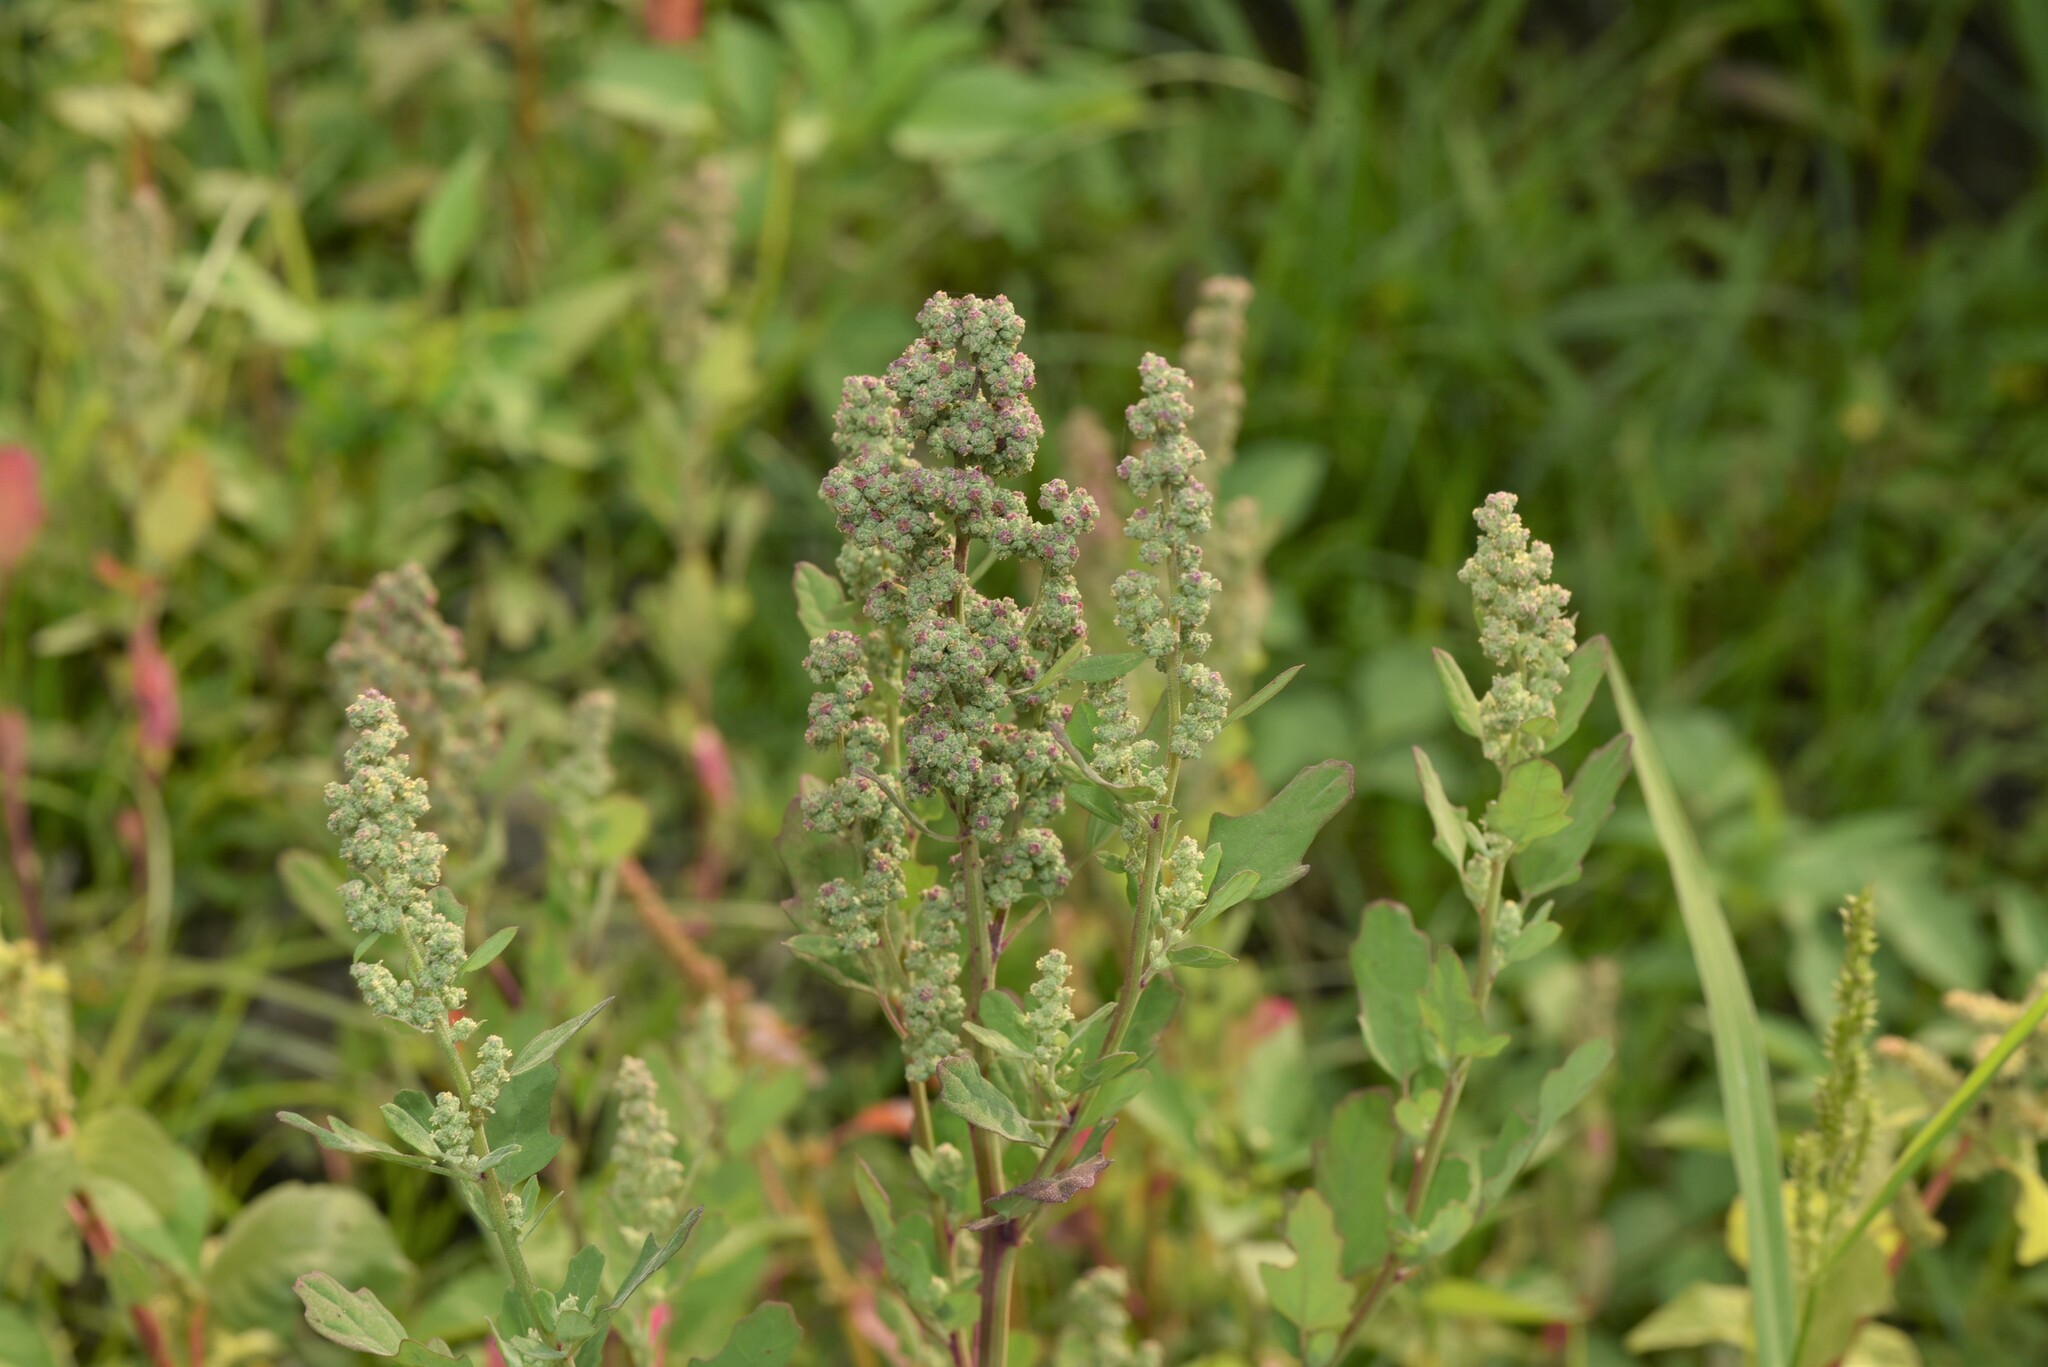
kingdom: Plantae
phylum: Tracheophyta
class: Magnoliopsida
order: Caryophyllales
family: Amaranthaceae
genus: Chenopodium
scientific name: Chenopodium ficifolium
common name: Fig-leaved goosefoot
